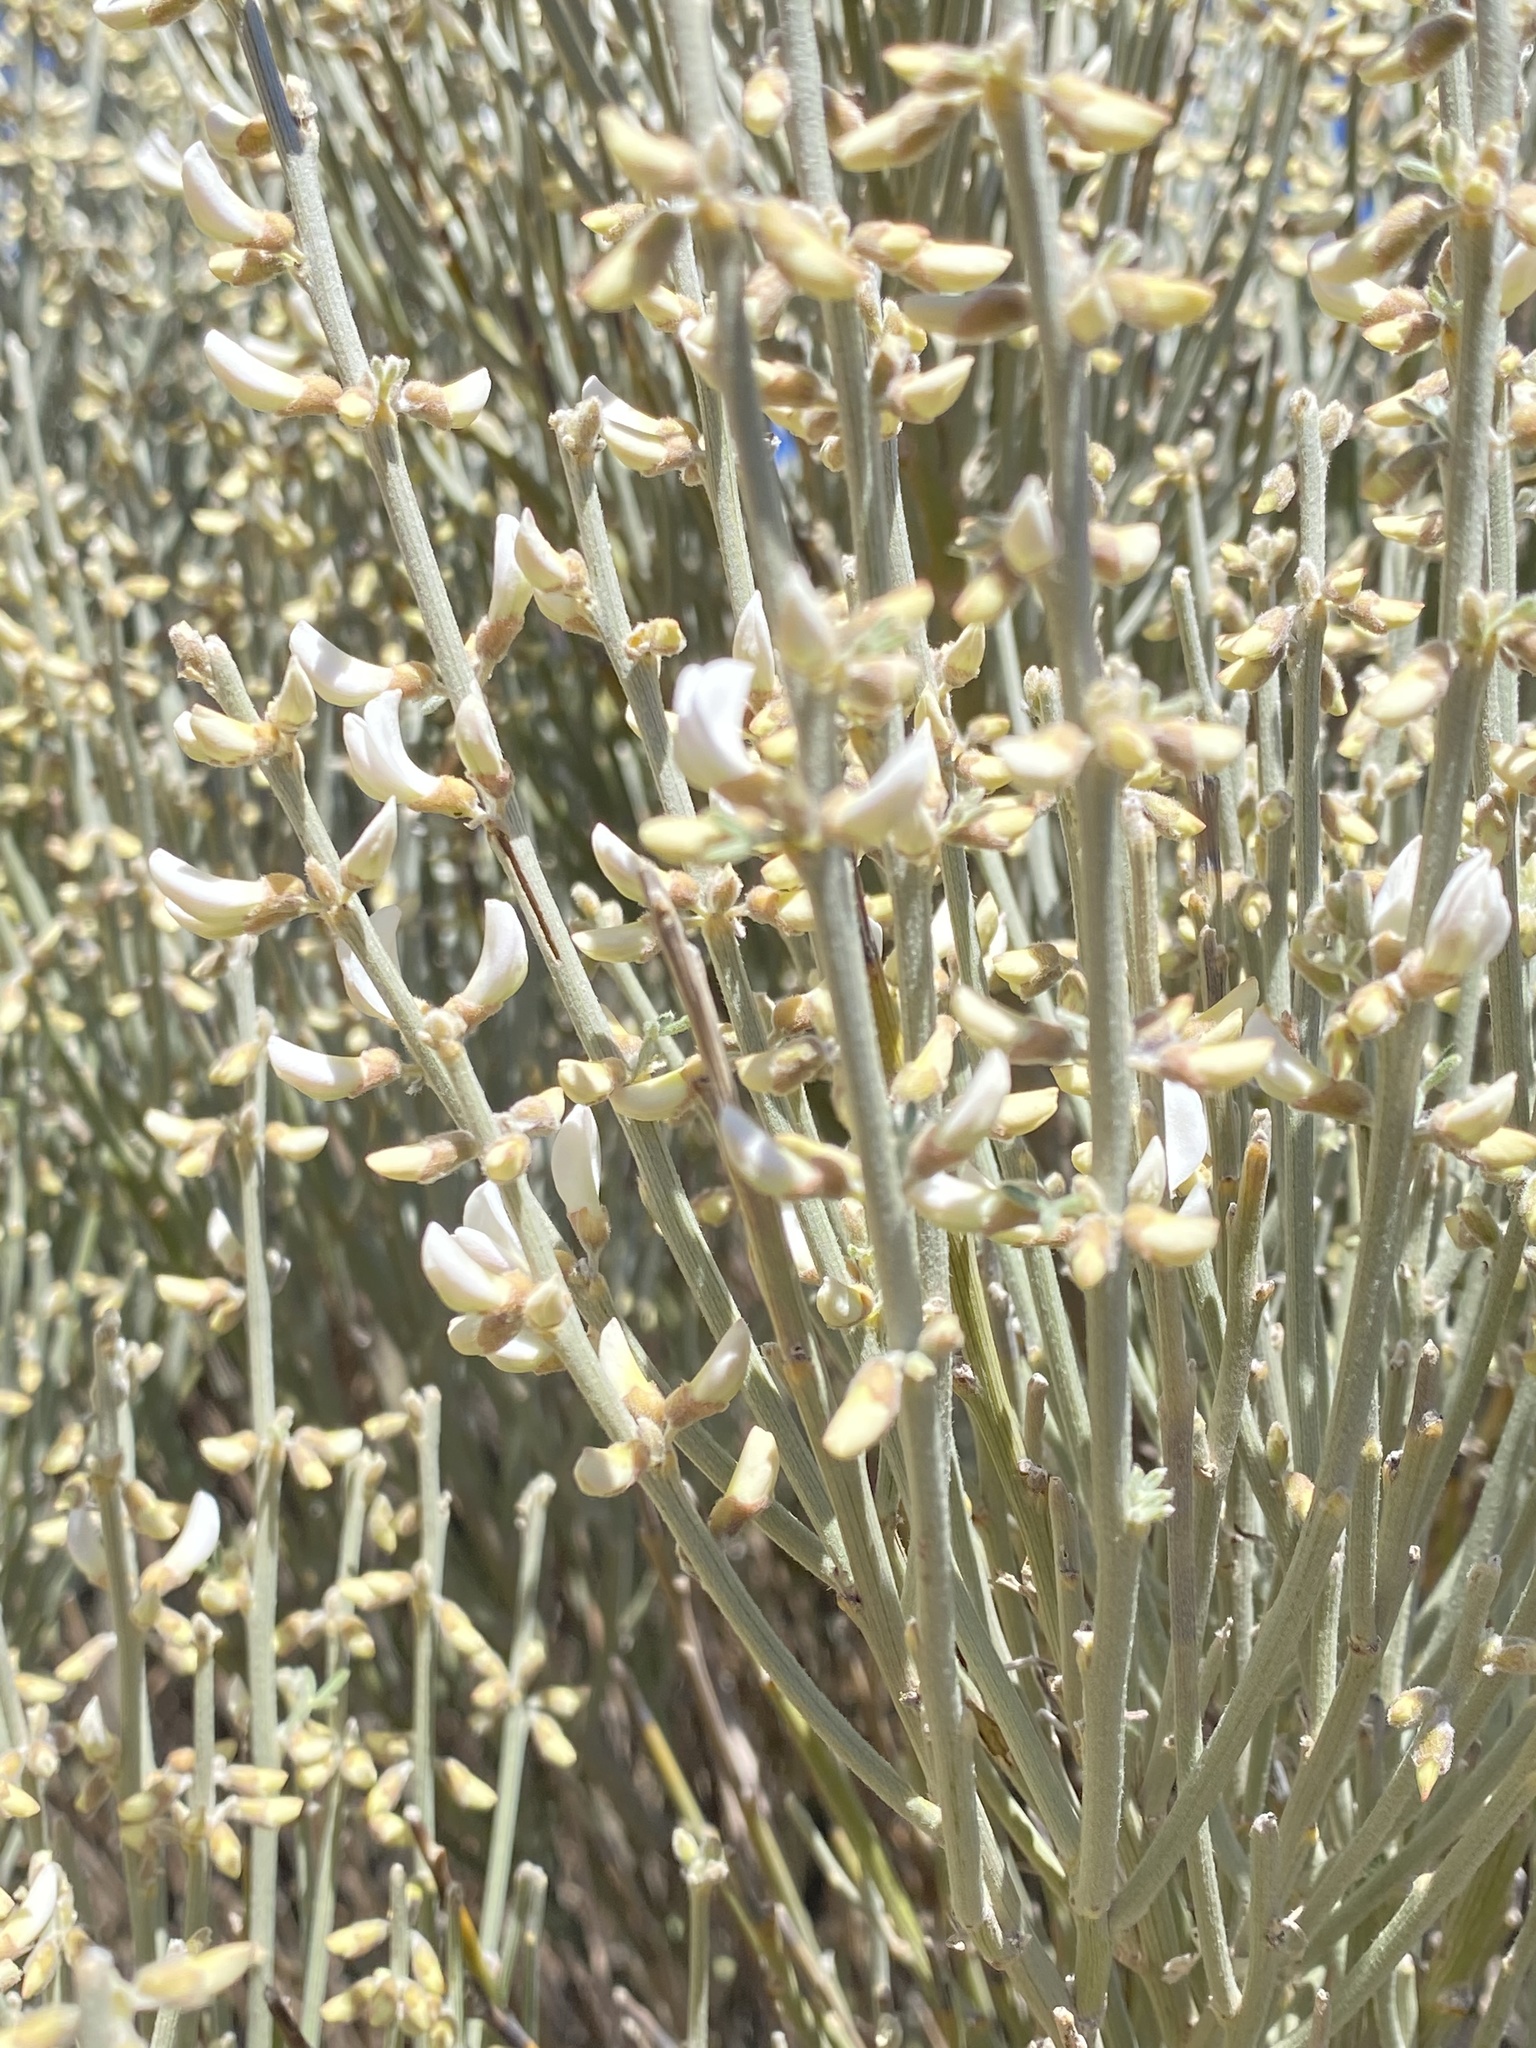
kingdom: Plantae
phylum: Tracheophyta
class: Magnoliopsida
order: Fabales
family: Fabaceae
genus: Cytisus
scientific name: Cytisus supranubius
